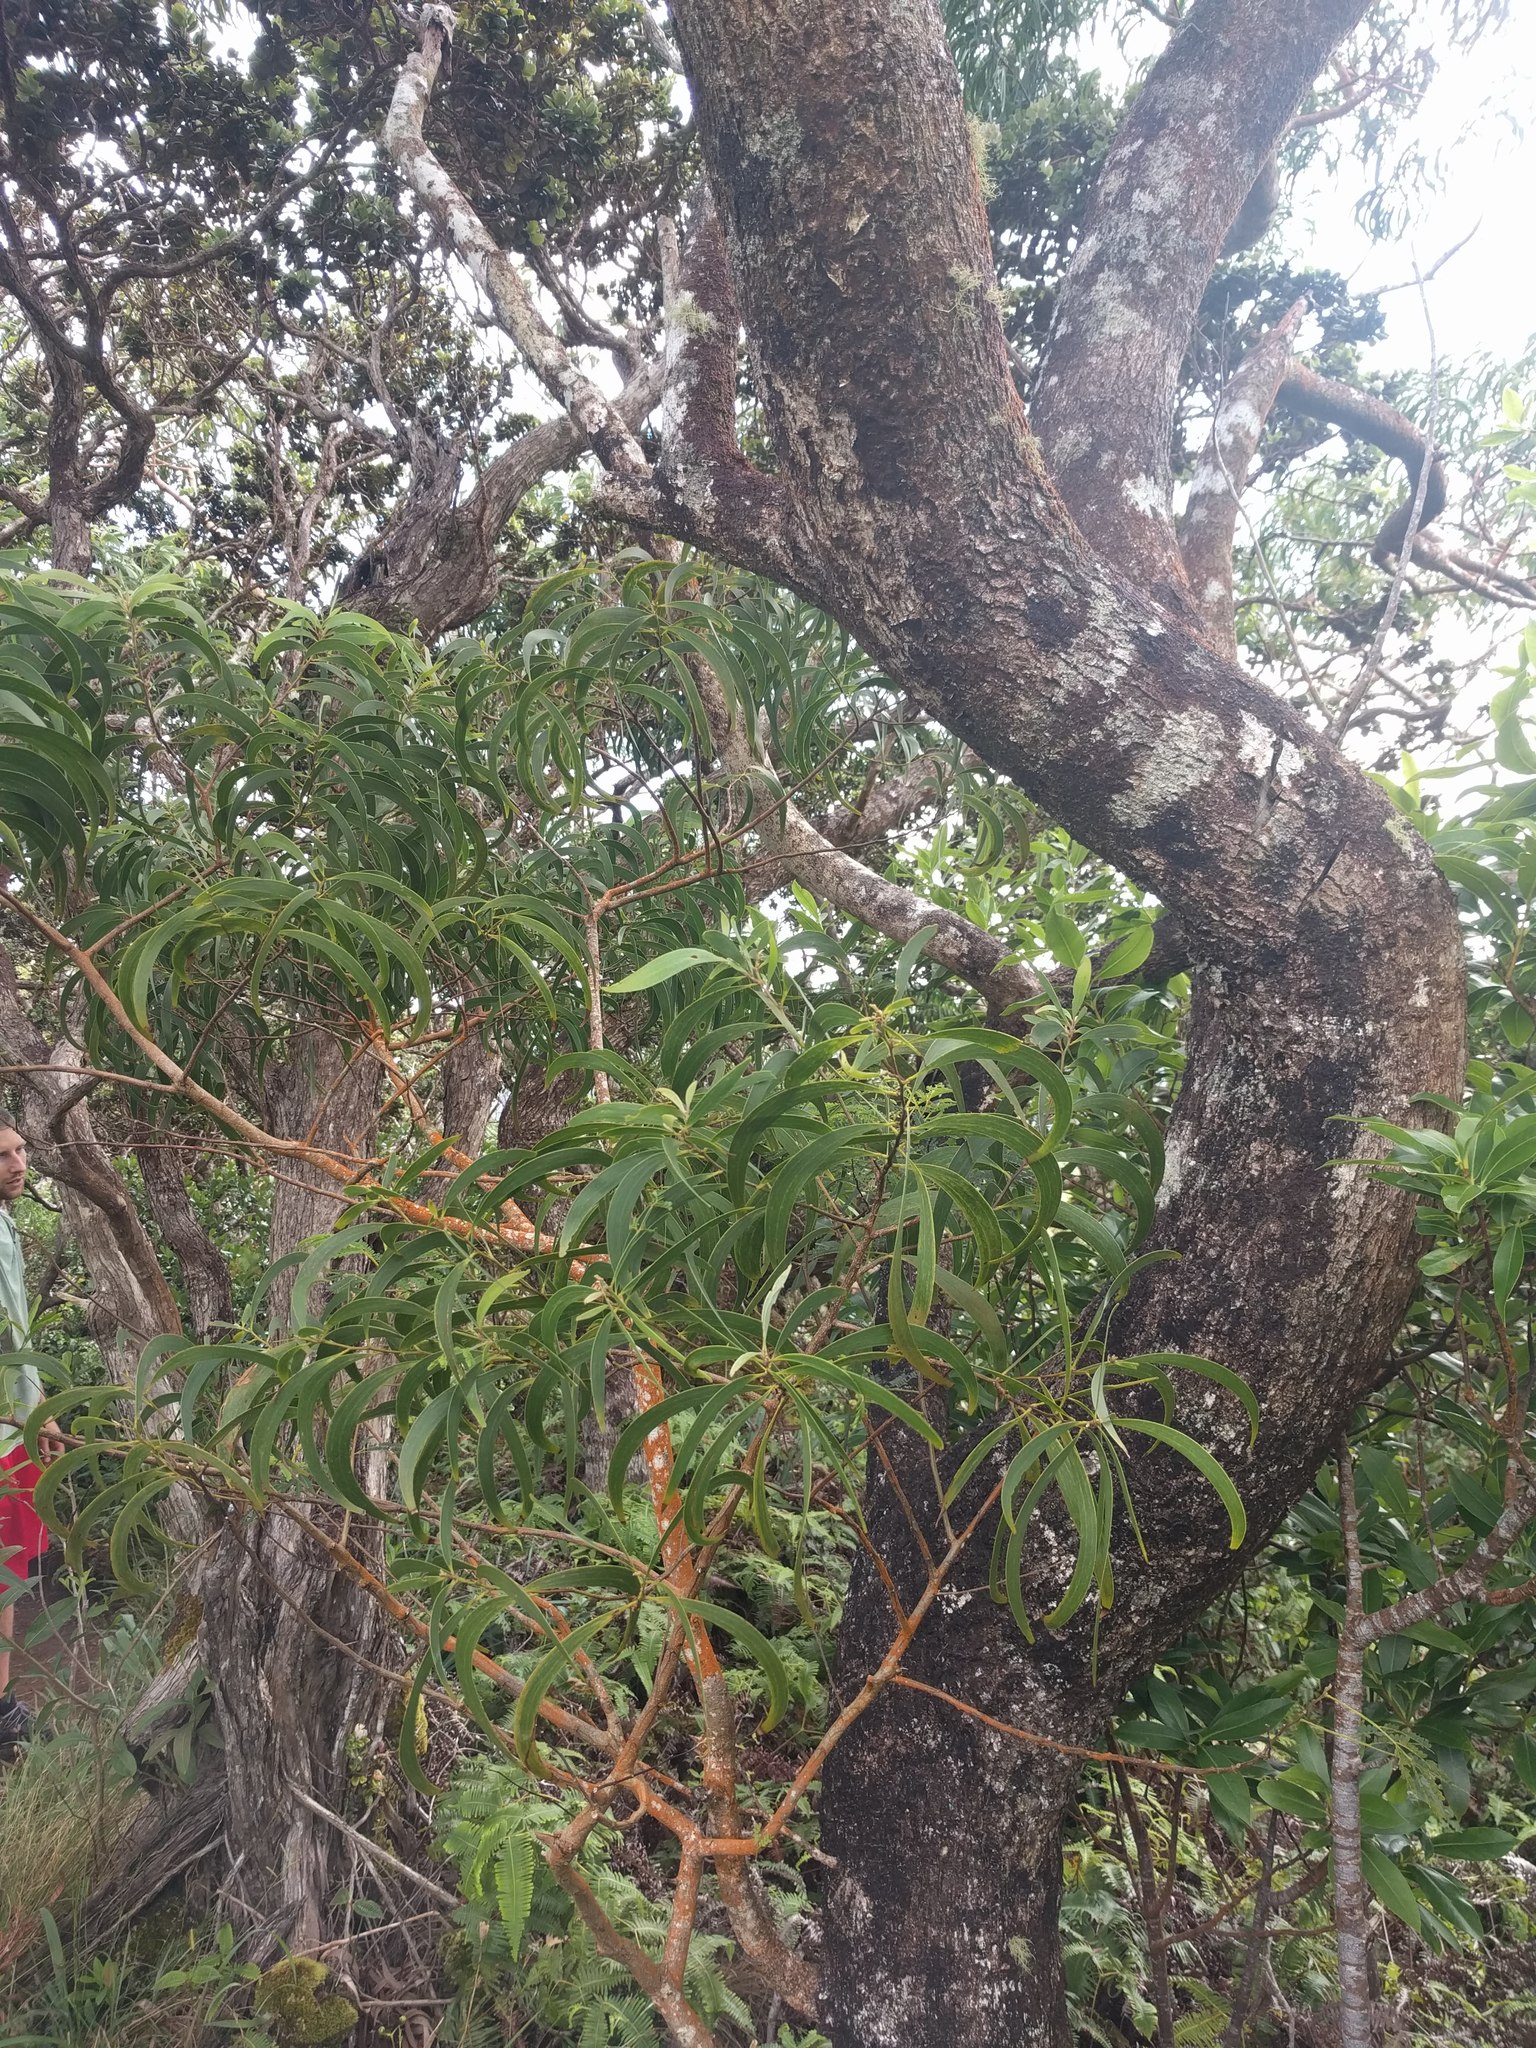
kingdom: Plantae
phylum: Tracheophyta
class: Magnoliopsida
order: Fabales
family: Fabaceae
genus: Acacia
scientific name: Acacia koa
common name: Gray koa
